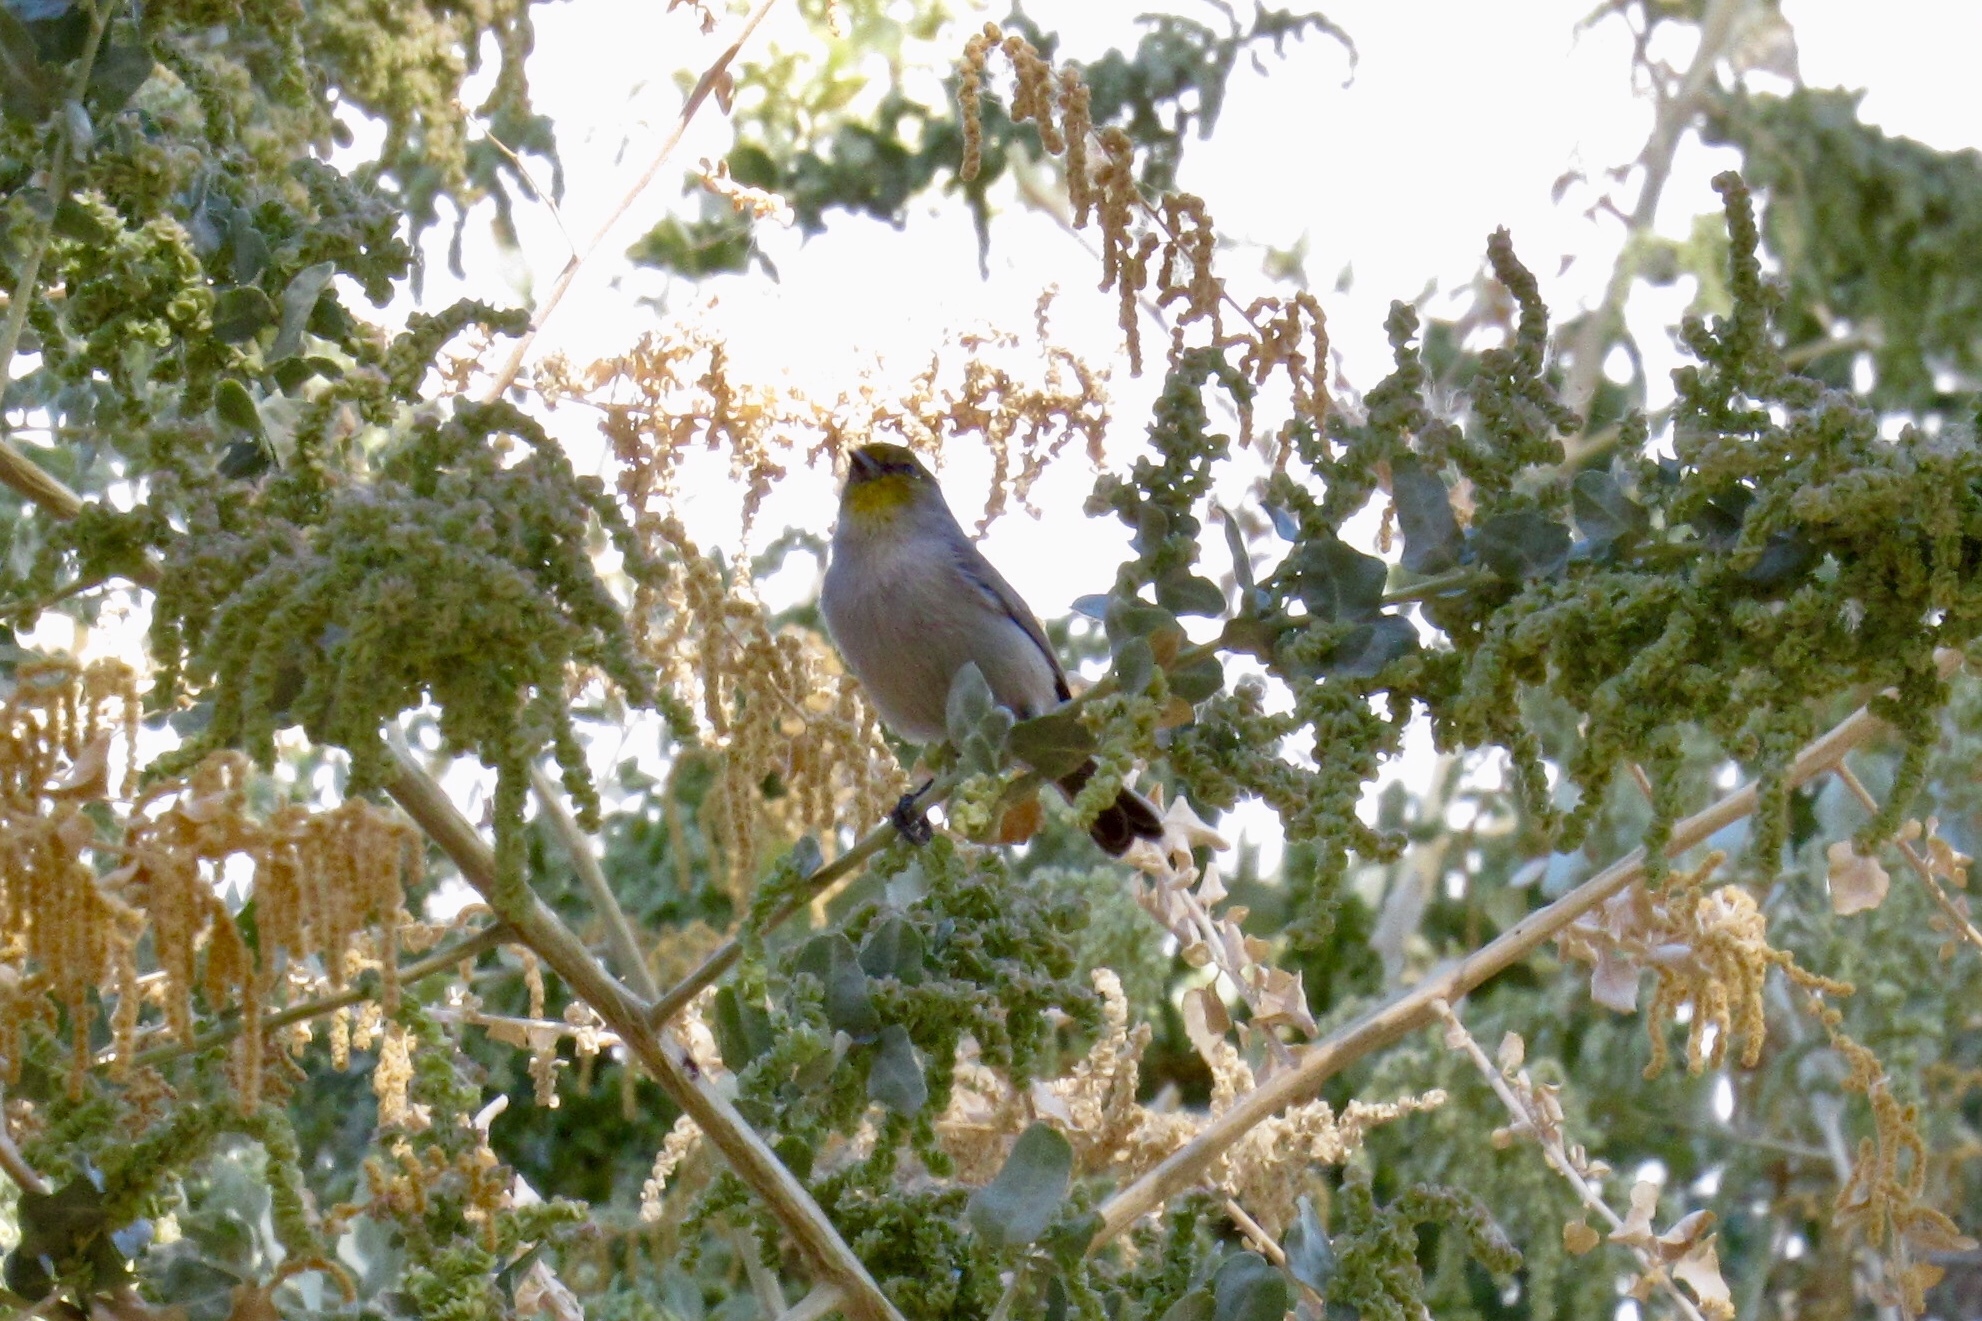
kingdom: Animalia
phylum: Chordata
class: Aves
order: Passeriformes
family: Remizidae
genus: Auriparus
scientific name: Auriparus flaviceps
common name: Verdin
